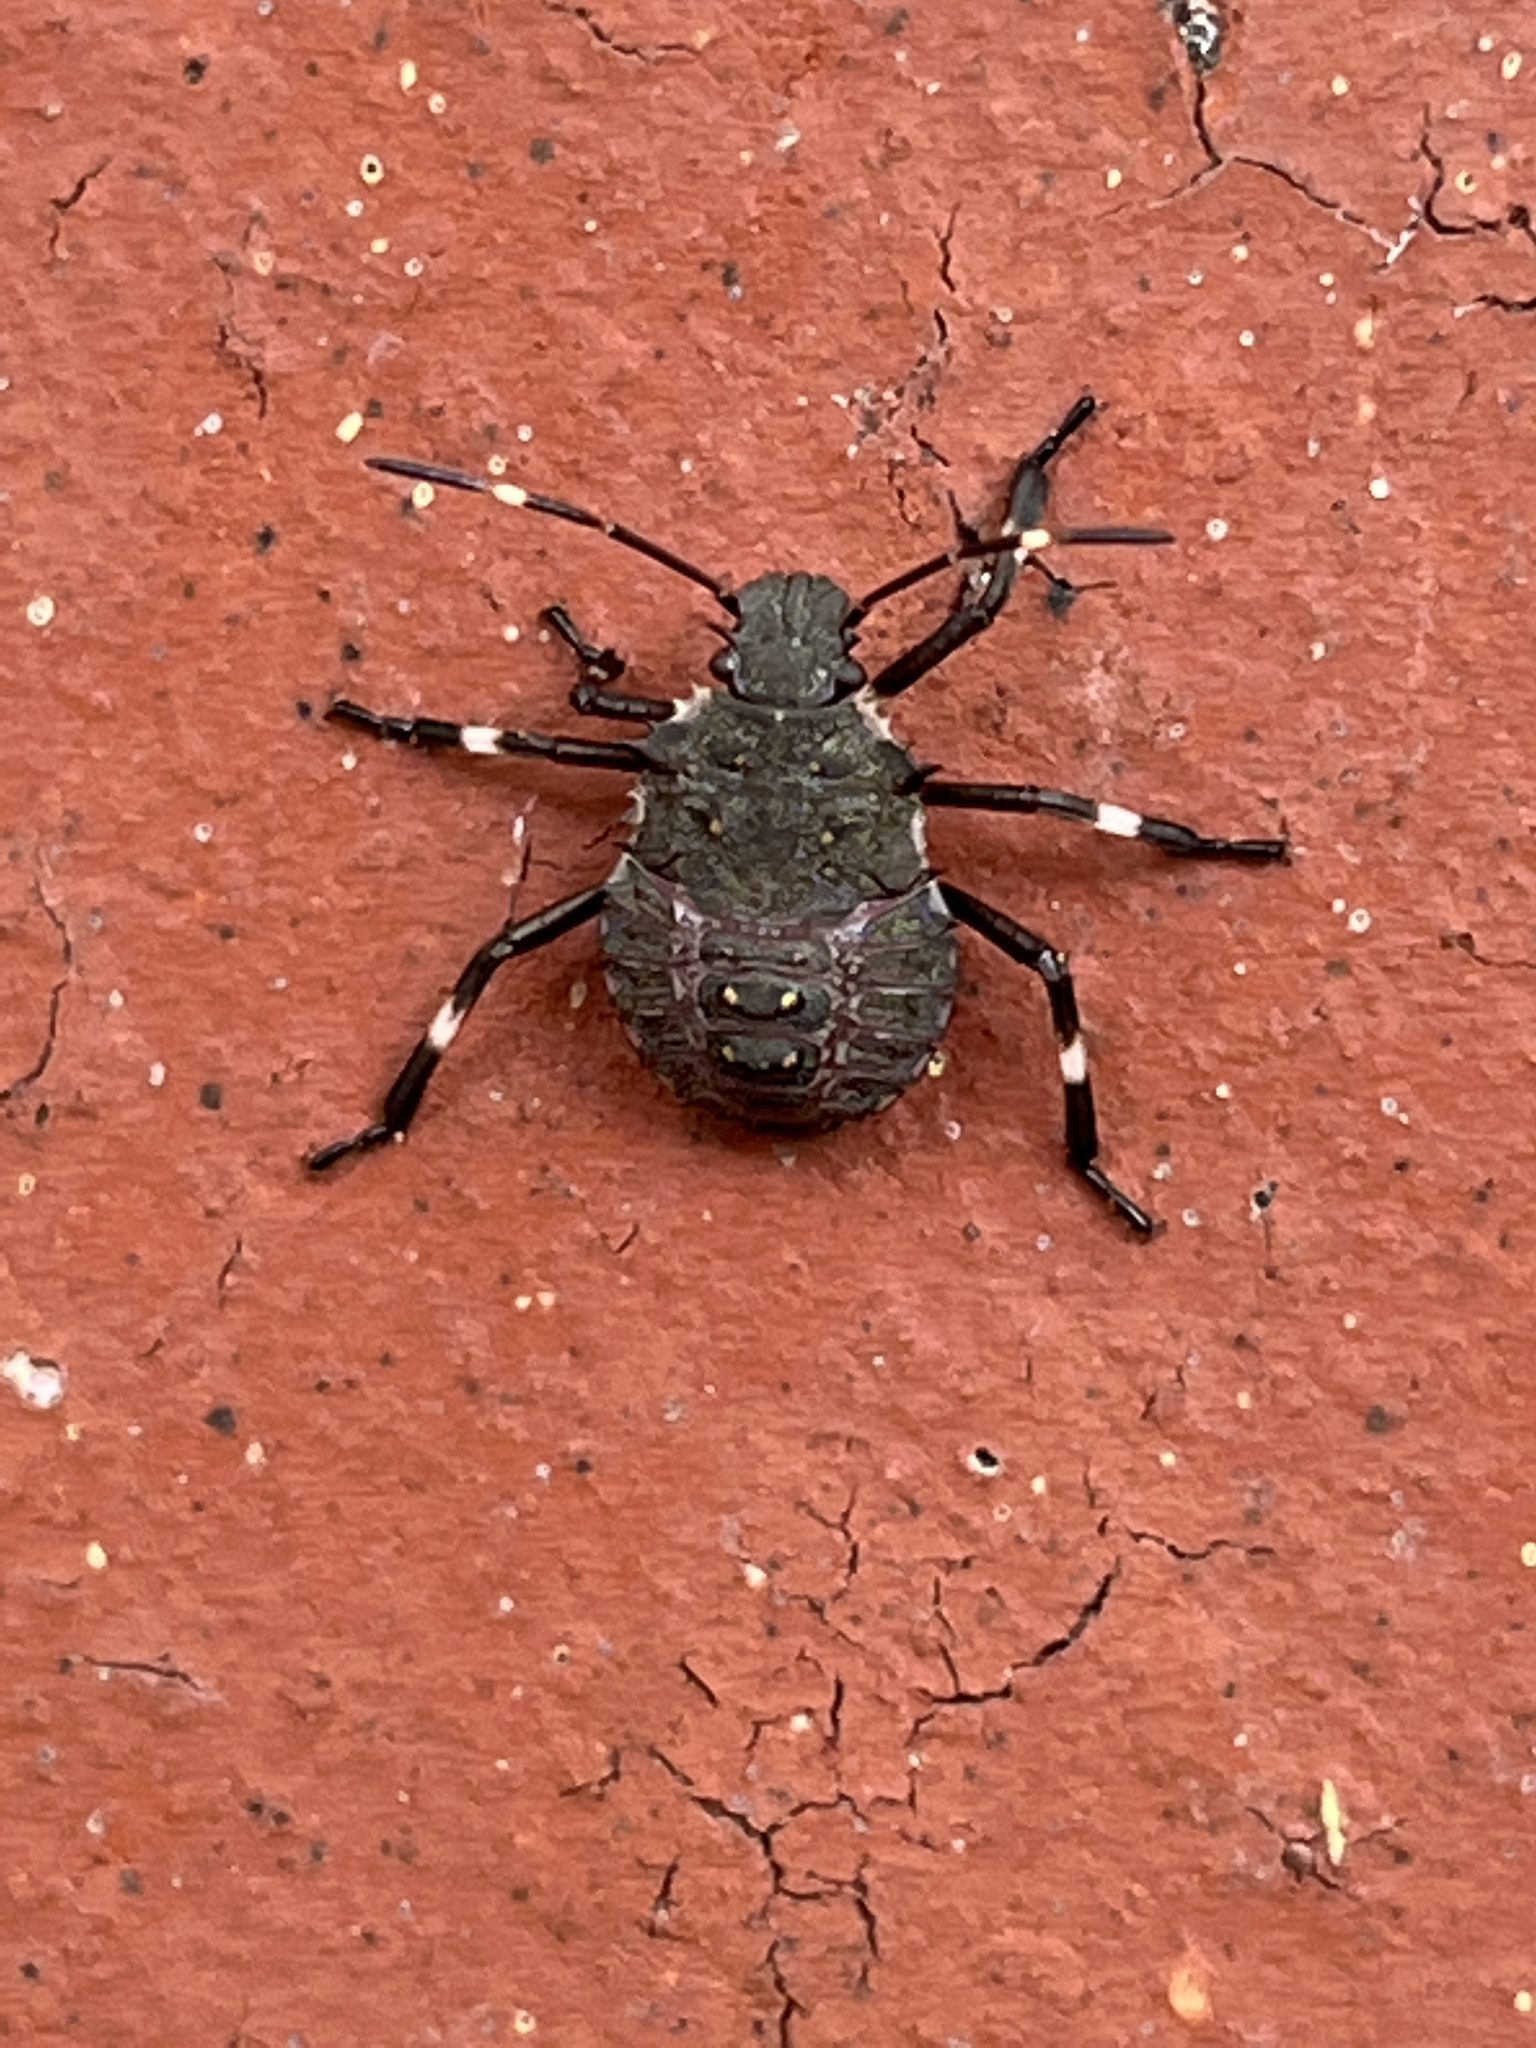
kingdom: Animalia
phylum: Arthropoda
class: Insecta
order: Hemiptera
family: Pentatomidae
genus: Halyomorpha
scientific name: Halyomorpha halys
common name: Brown marmorated stink bug
